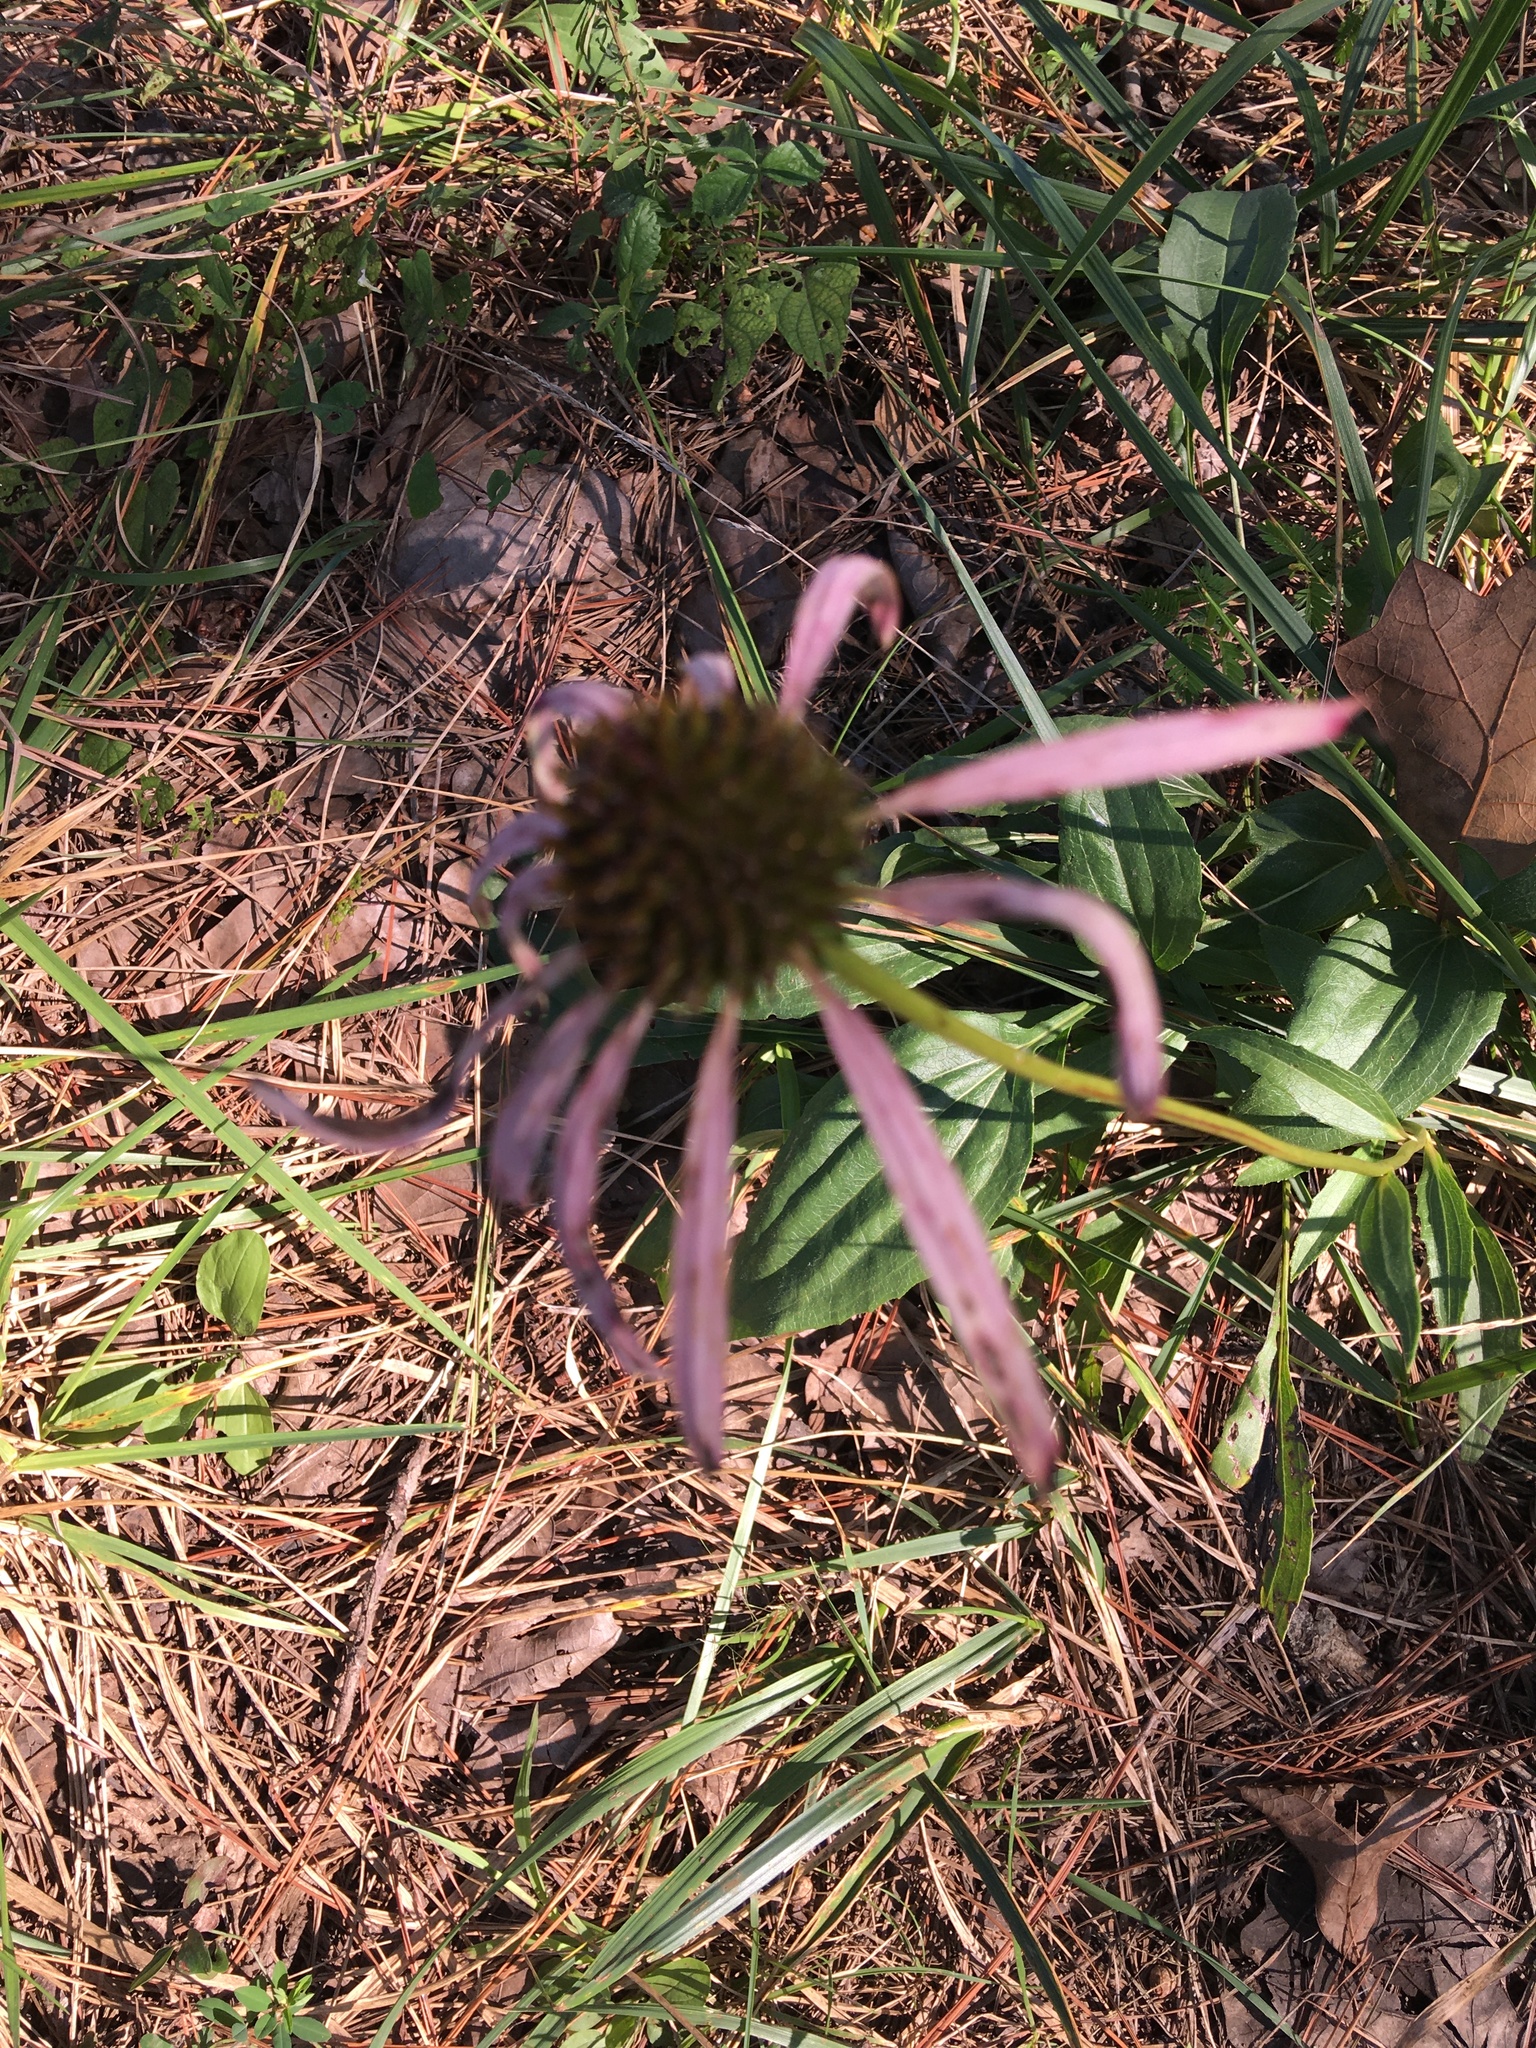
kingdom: Plantae
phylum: Tracheophyta
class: Magnoliopsida
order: Asterales
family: Asteraceae
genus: Echinacea
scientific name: Echinacea laevigata
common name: Smooth coneflower
